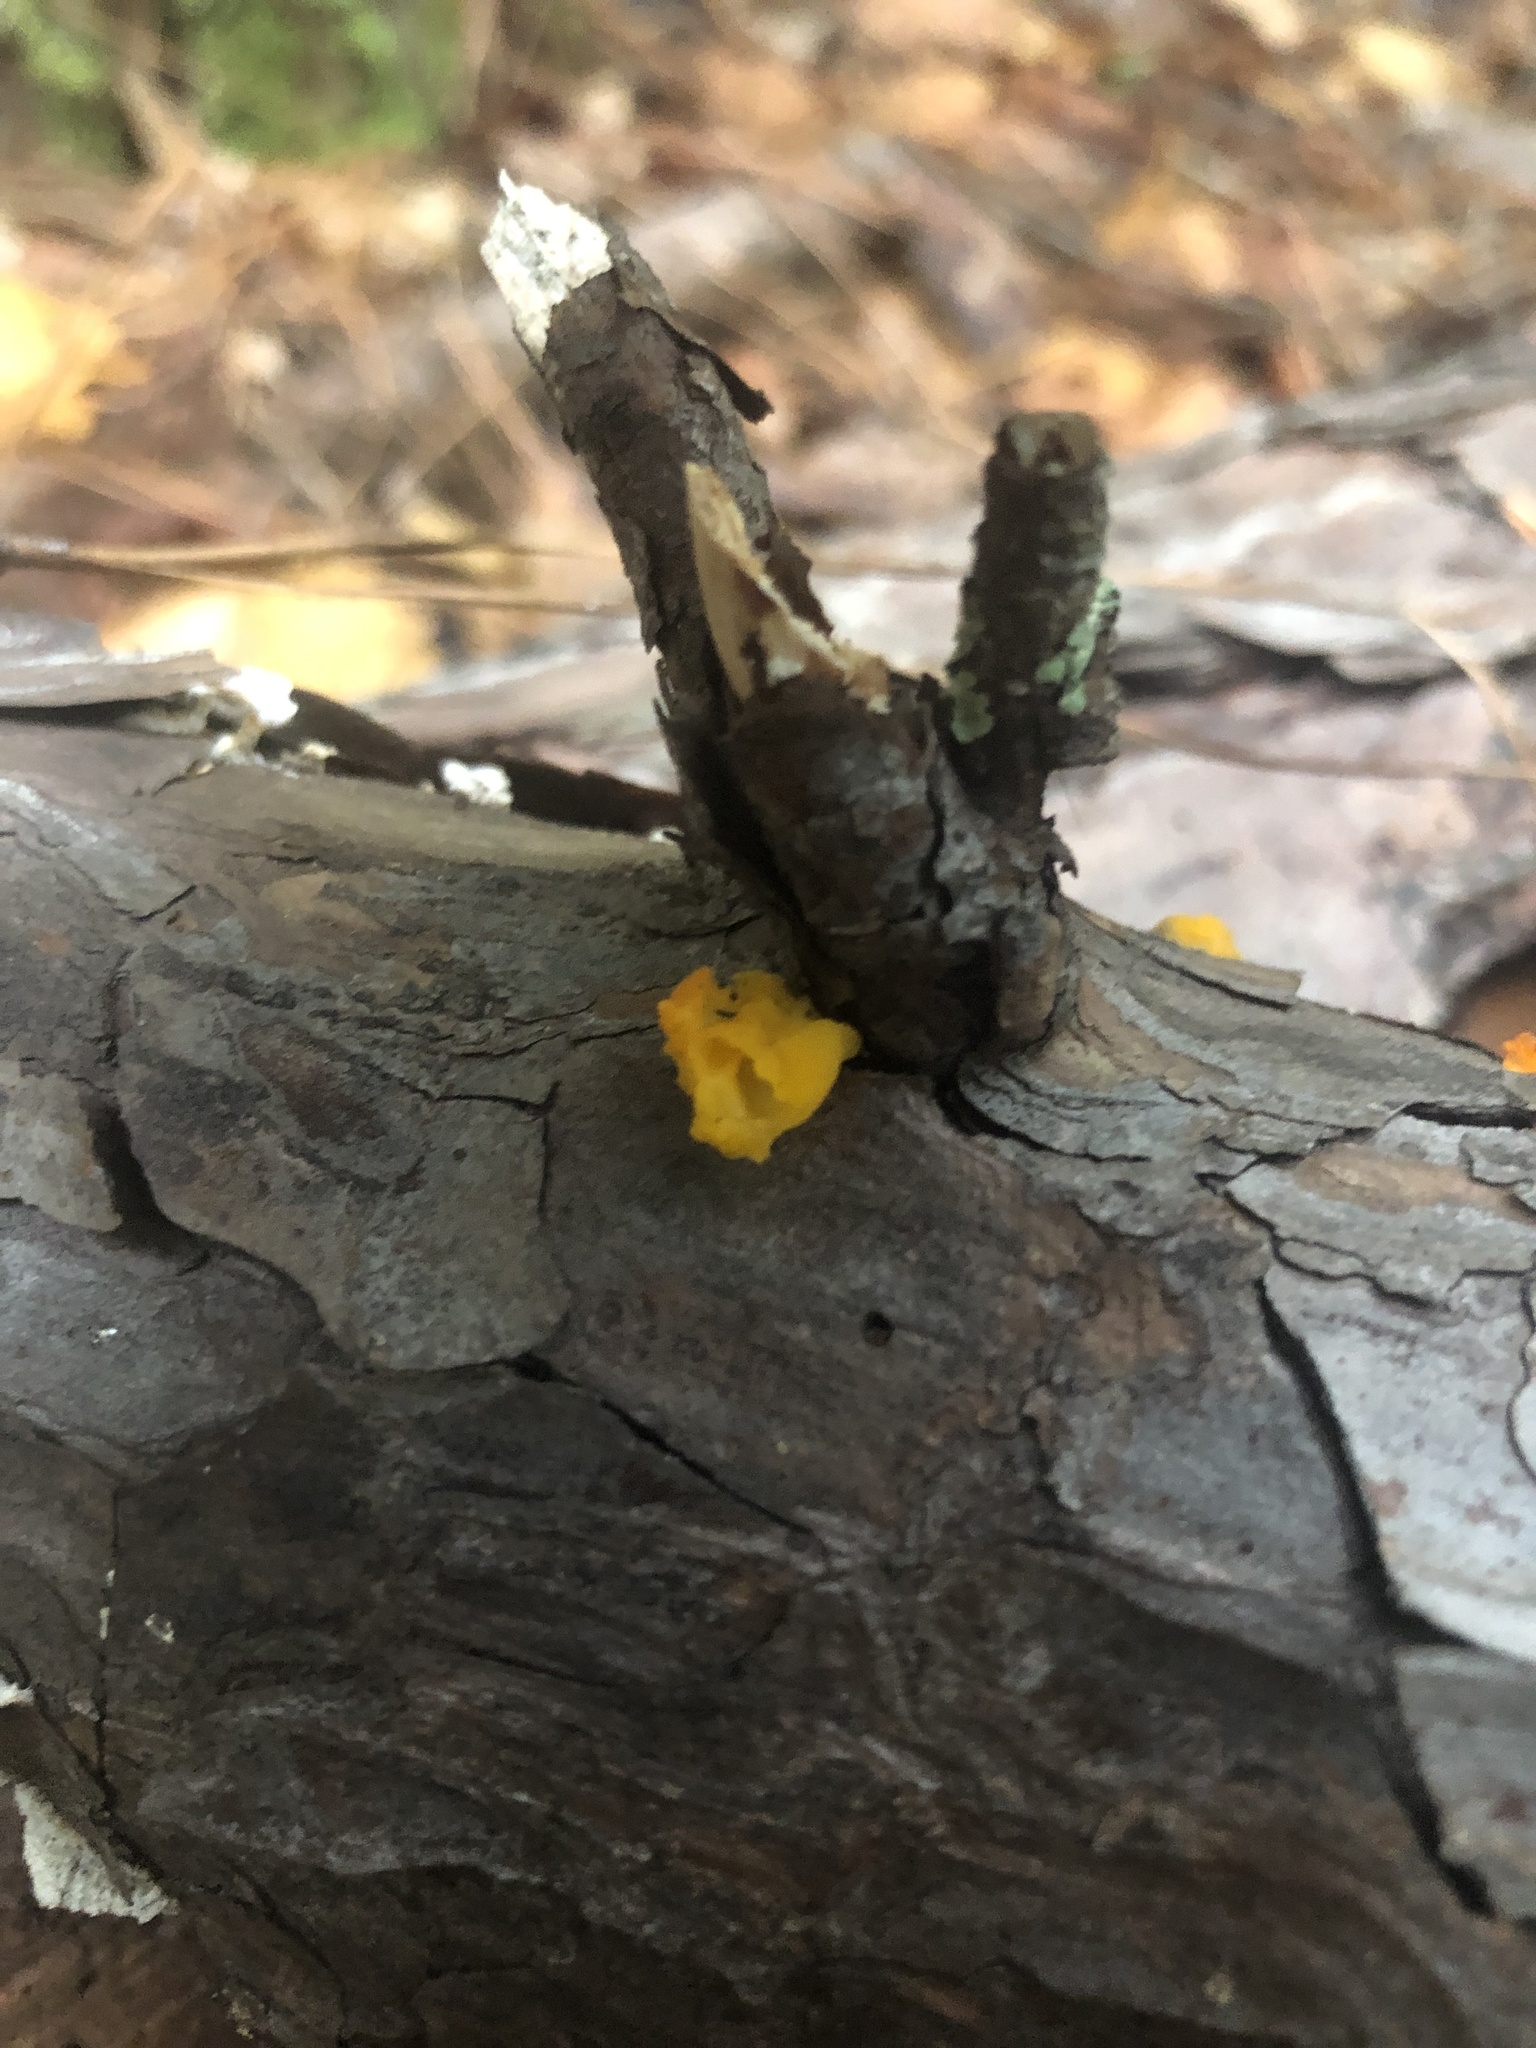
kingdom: Fungi
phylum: Basidiomycota
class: Dacrymycetes
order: Dacrymycetales
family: Dacrymycetaceae
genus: Dacrymyces
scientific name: Dacrymyces chrysospermus
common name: Orange jelly spot
